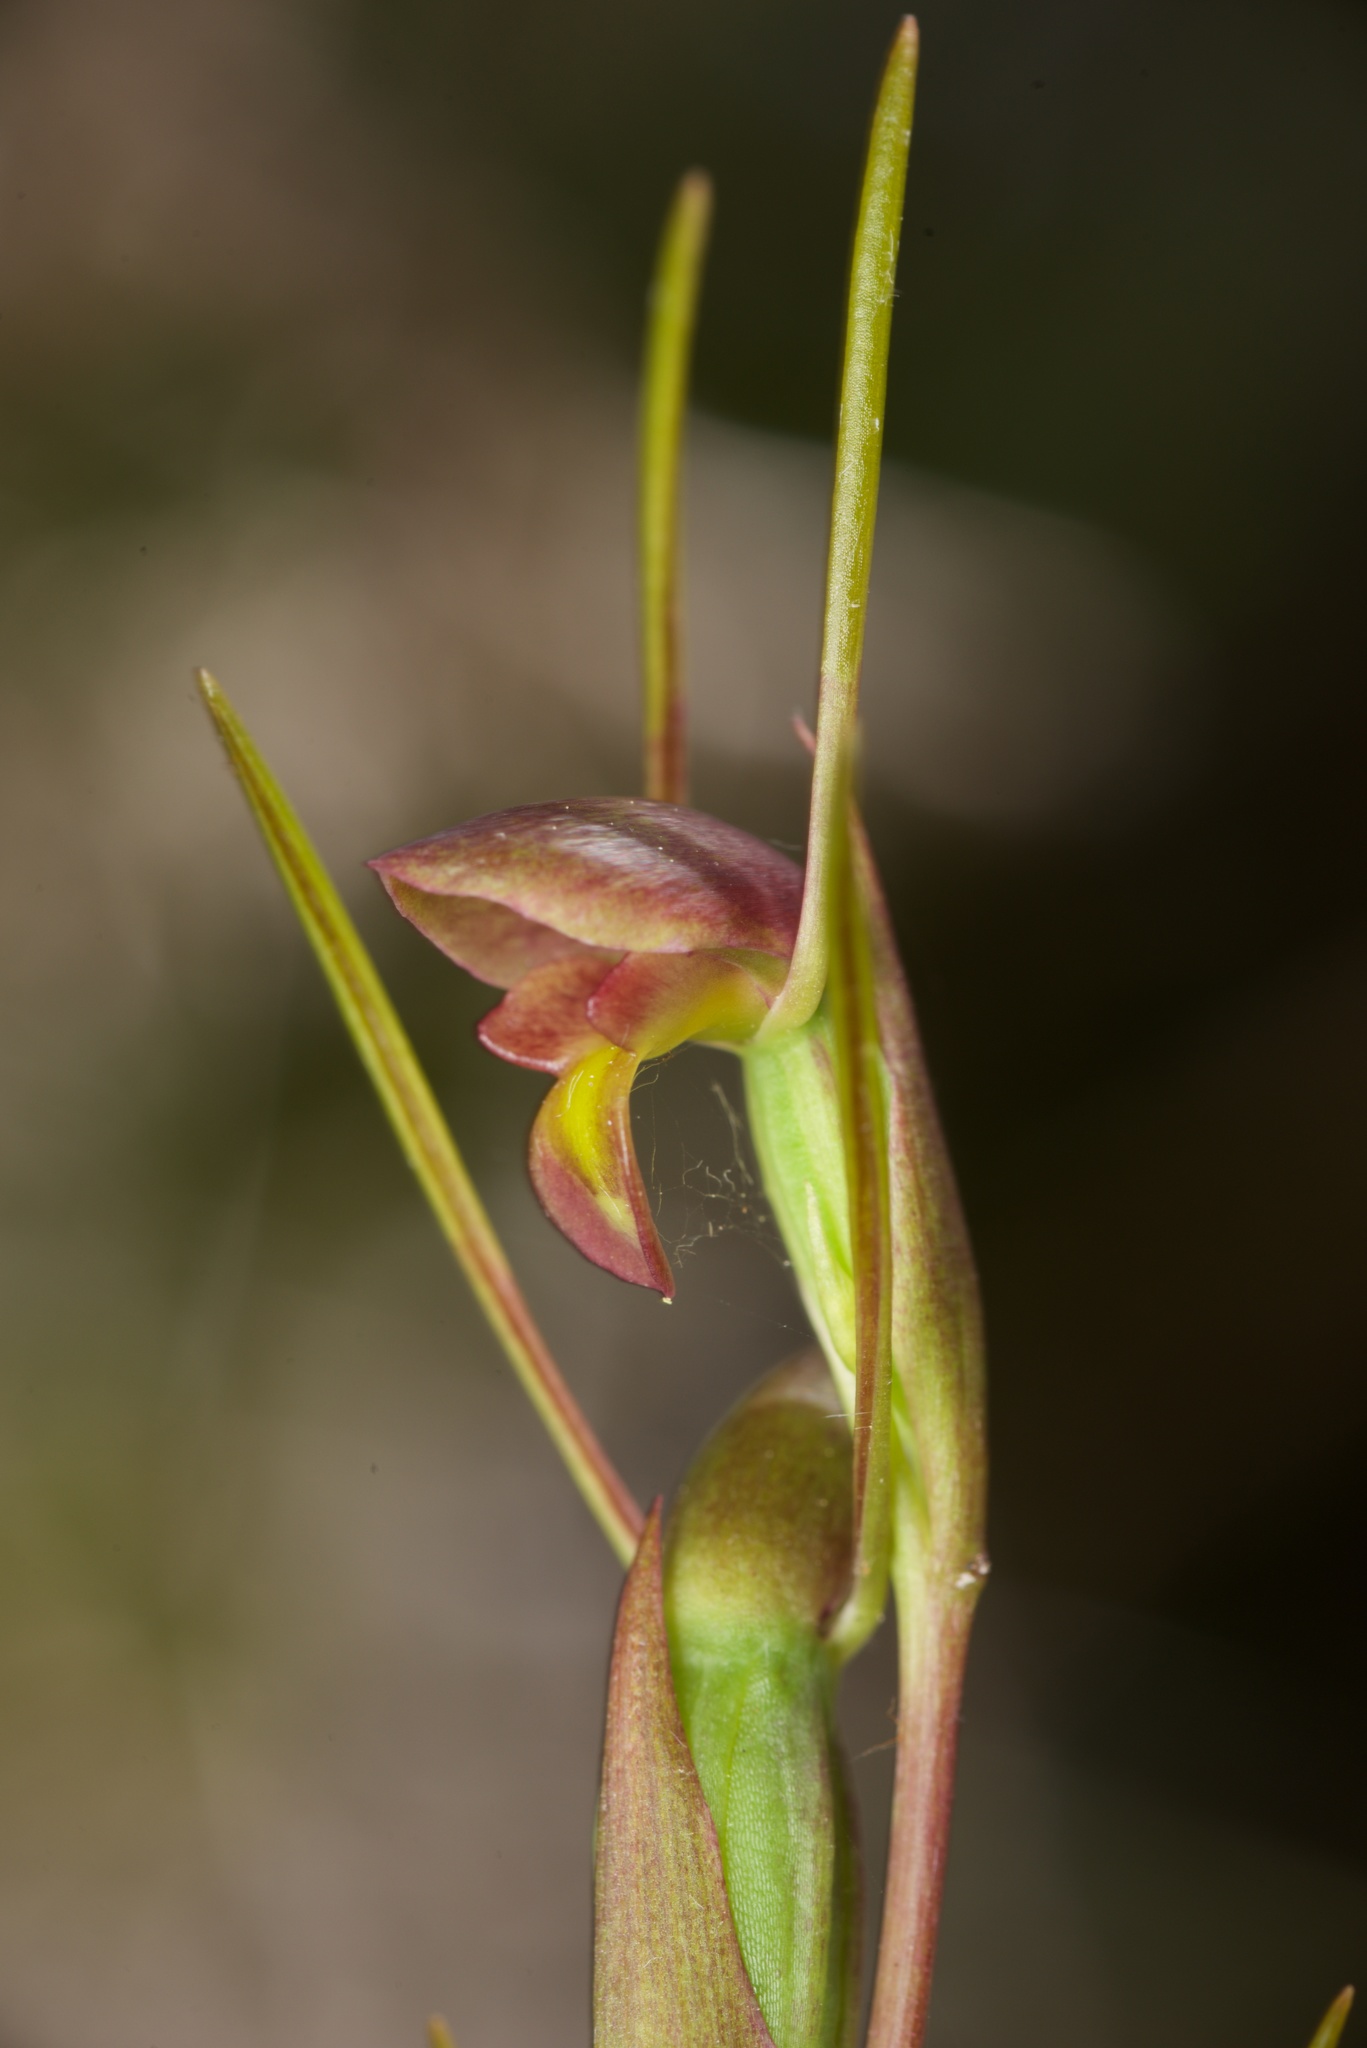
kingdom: Plantae
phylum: Tracheophyta
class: Liliopsida
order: Asparagales
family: Orchidaceae
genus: Orthoceras
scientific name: Orthoceras novae-zeelandiae
